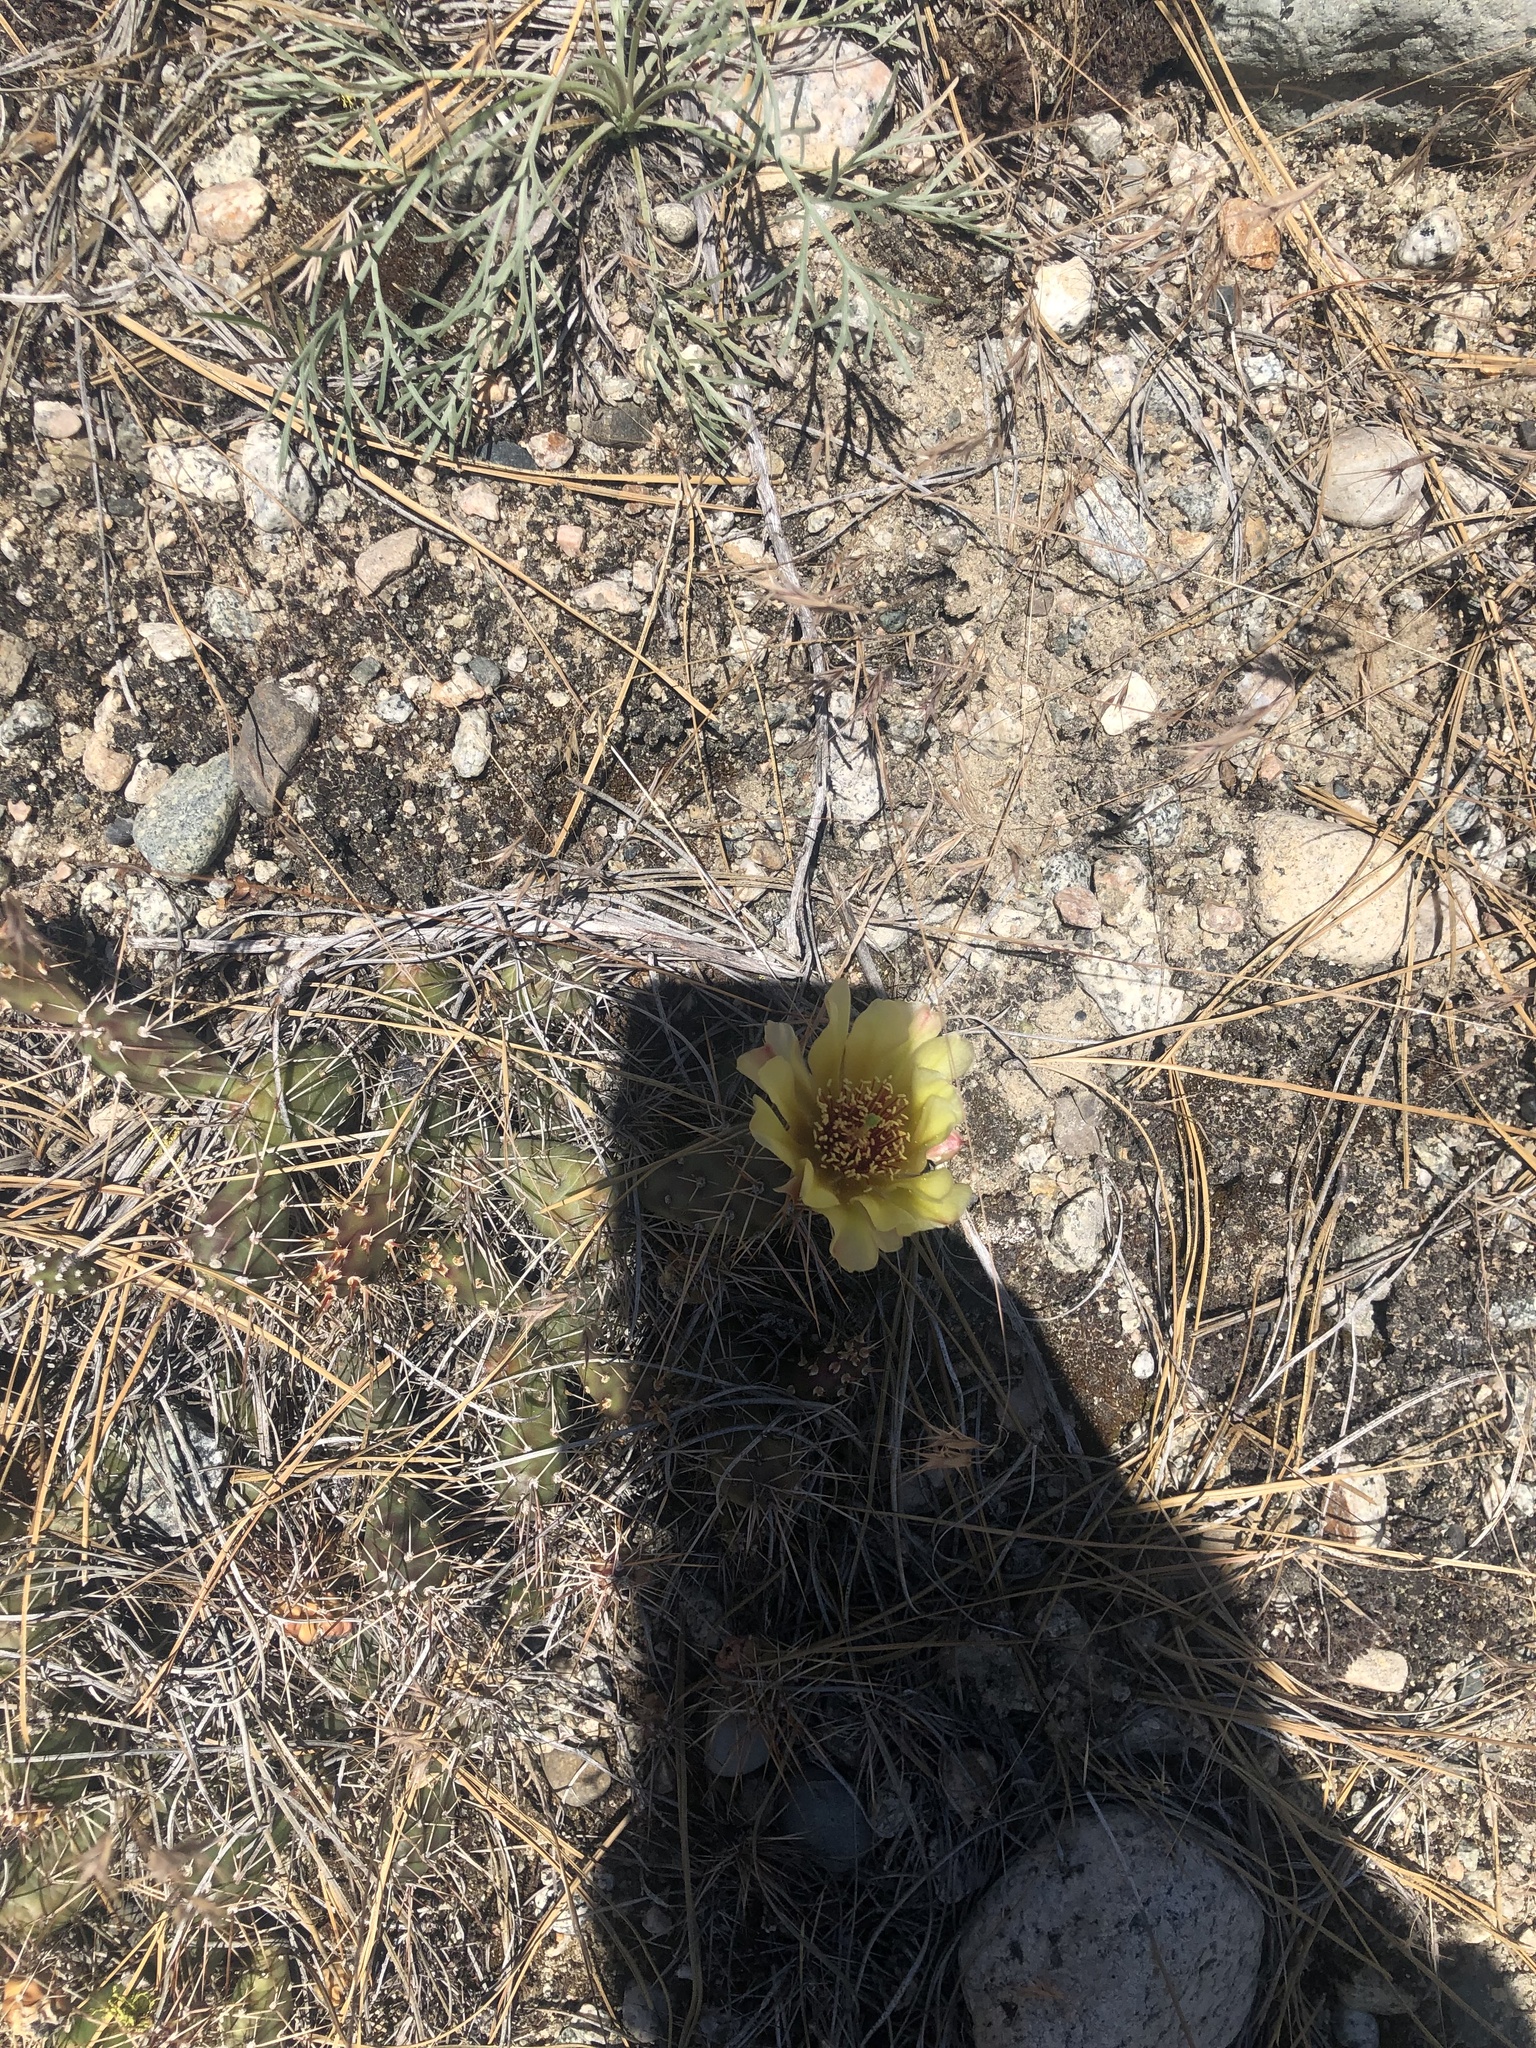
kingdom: Plantae
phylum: Tracheophyta
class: Magnoliopsida
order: Caryophyllales
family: Cactaceae
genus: Opuntia
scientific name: Opuntia fragilis
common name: Brittle cactus
